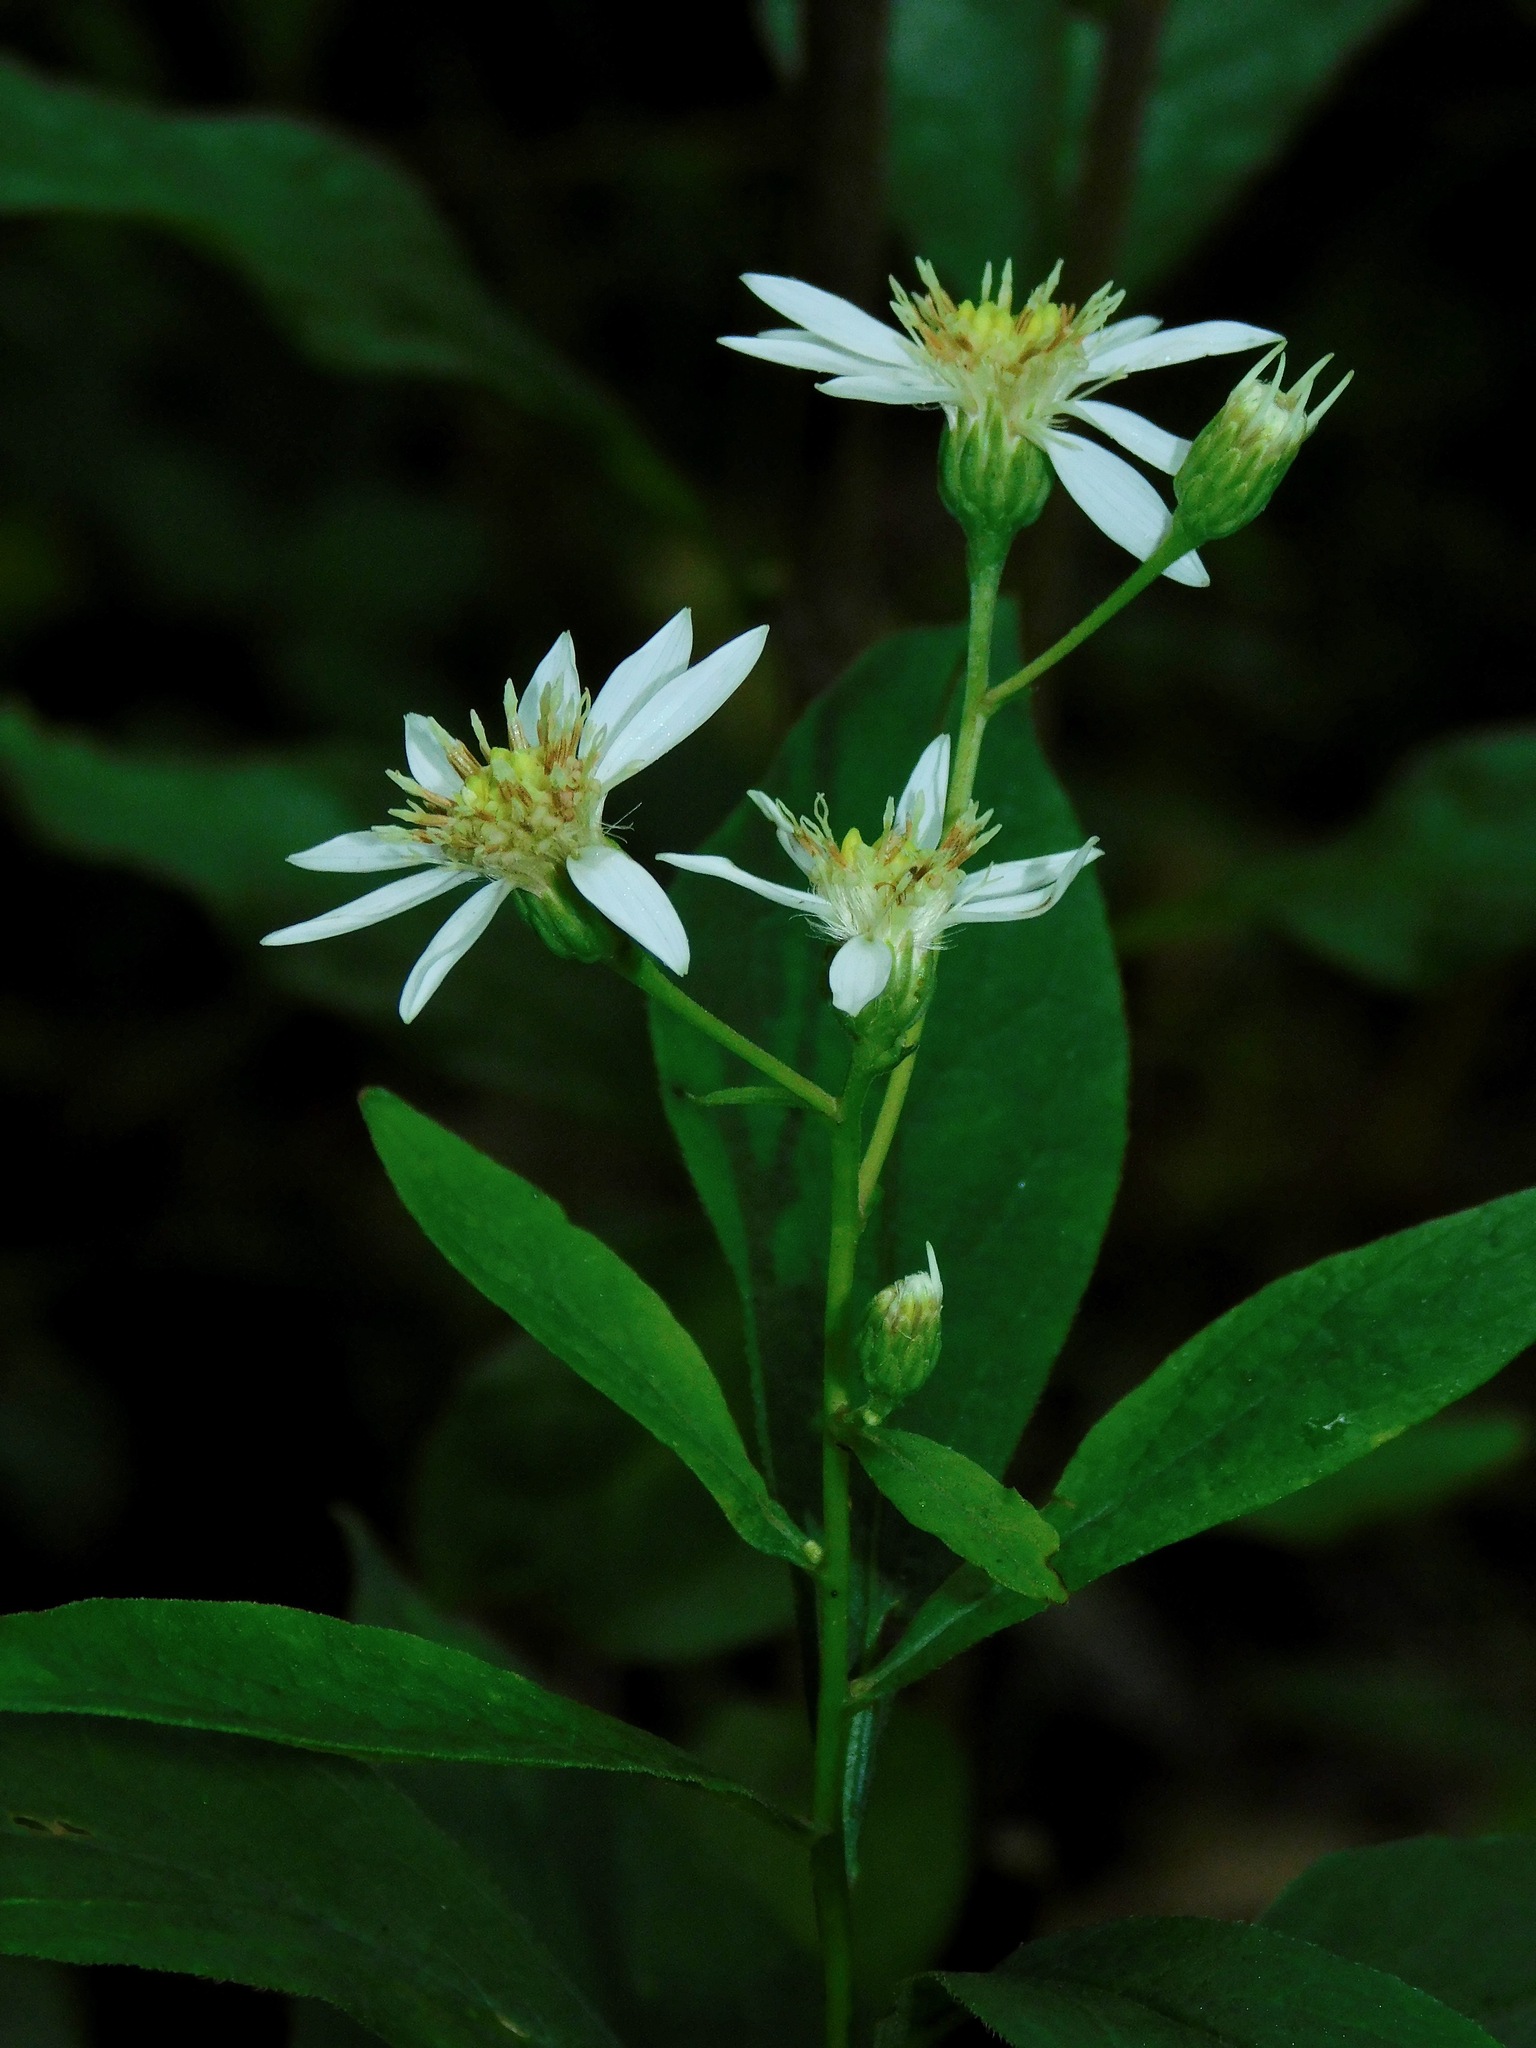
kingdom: Plantae
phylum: Tracheophyta
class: Magnoliopsida
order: Asterales
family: Asteraceae
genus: Doellingeria
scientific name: Doellingeria umbellata
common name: Flat-top white aster
